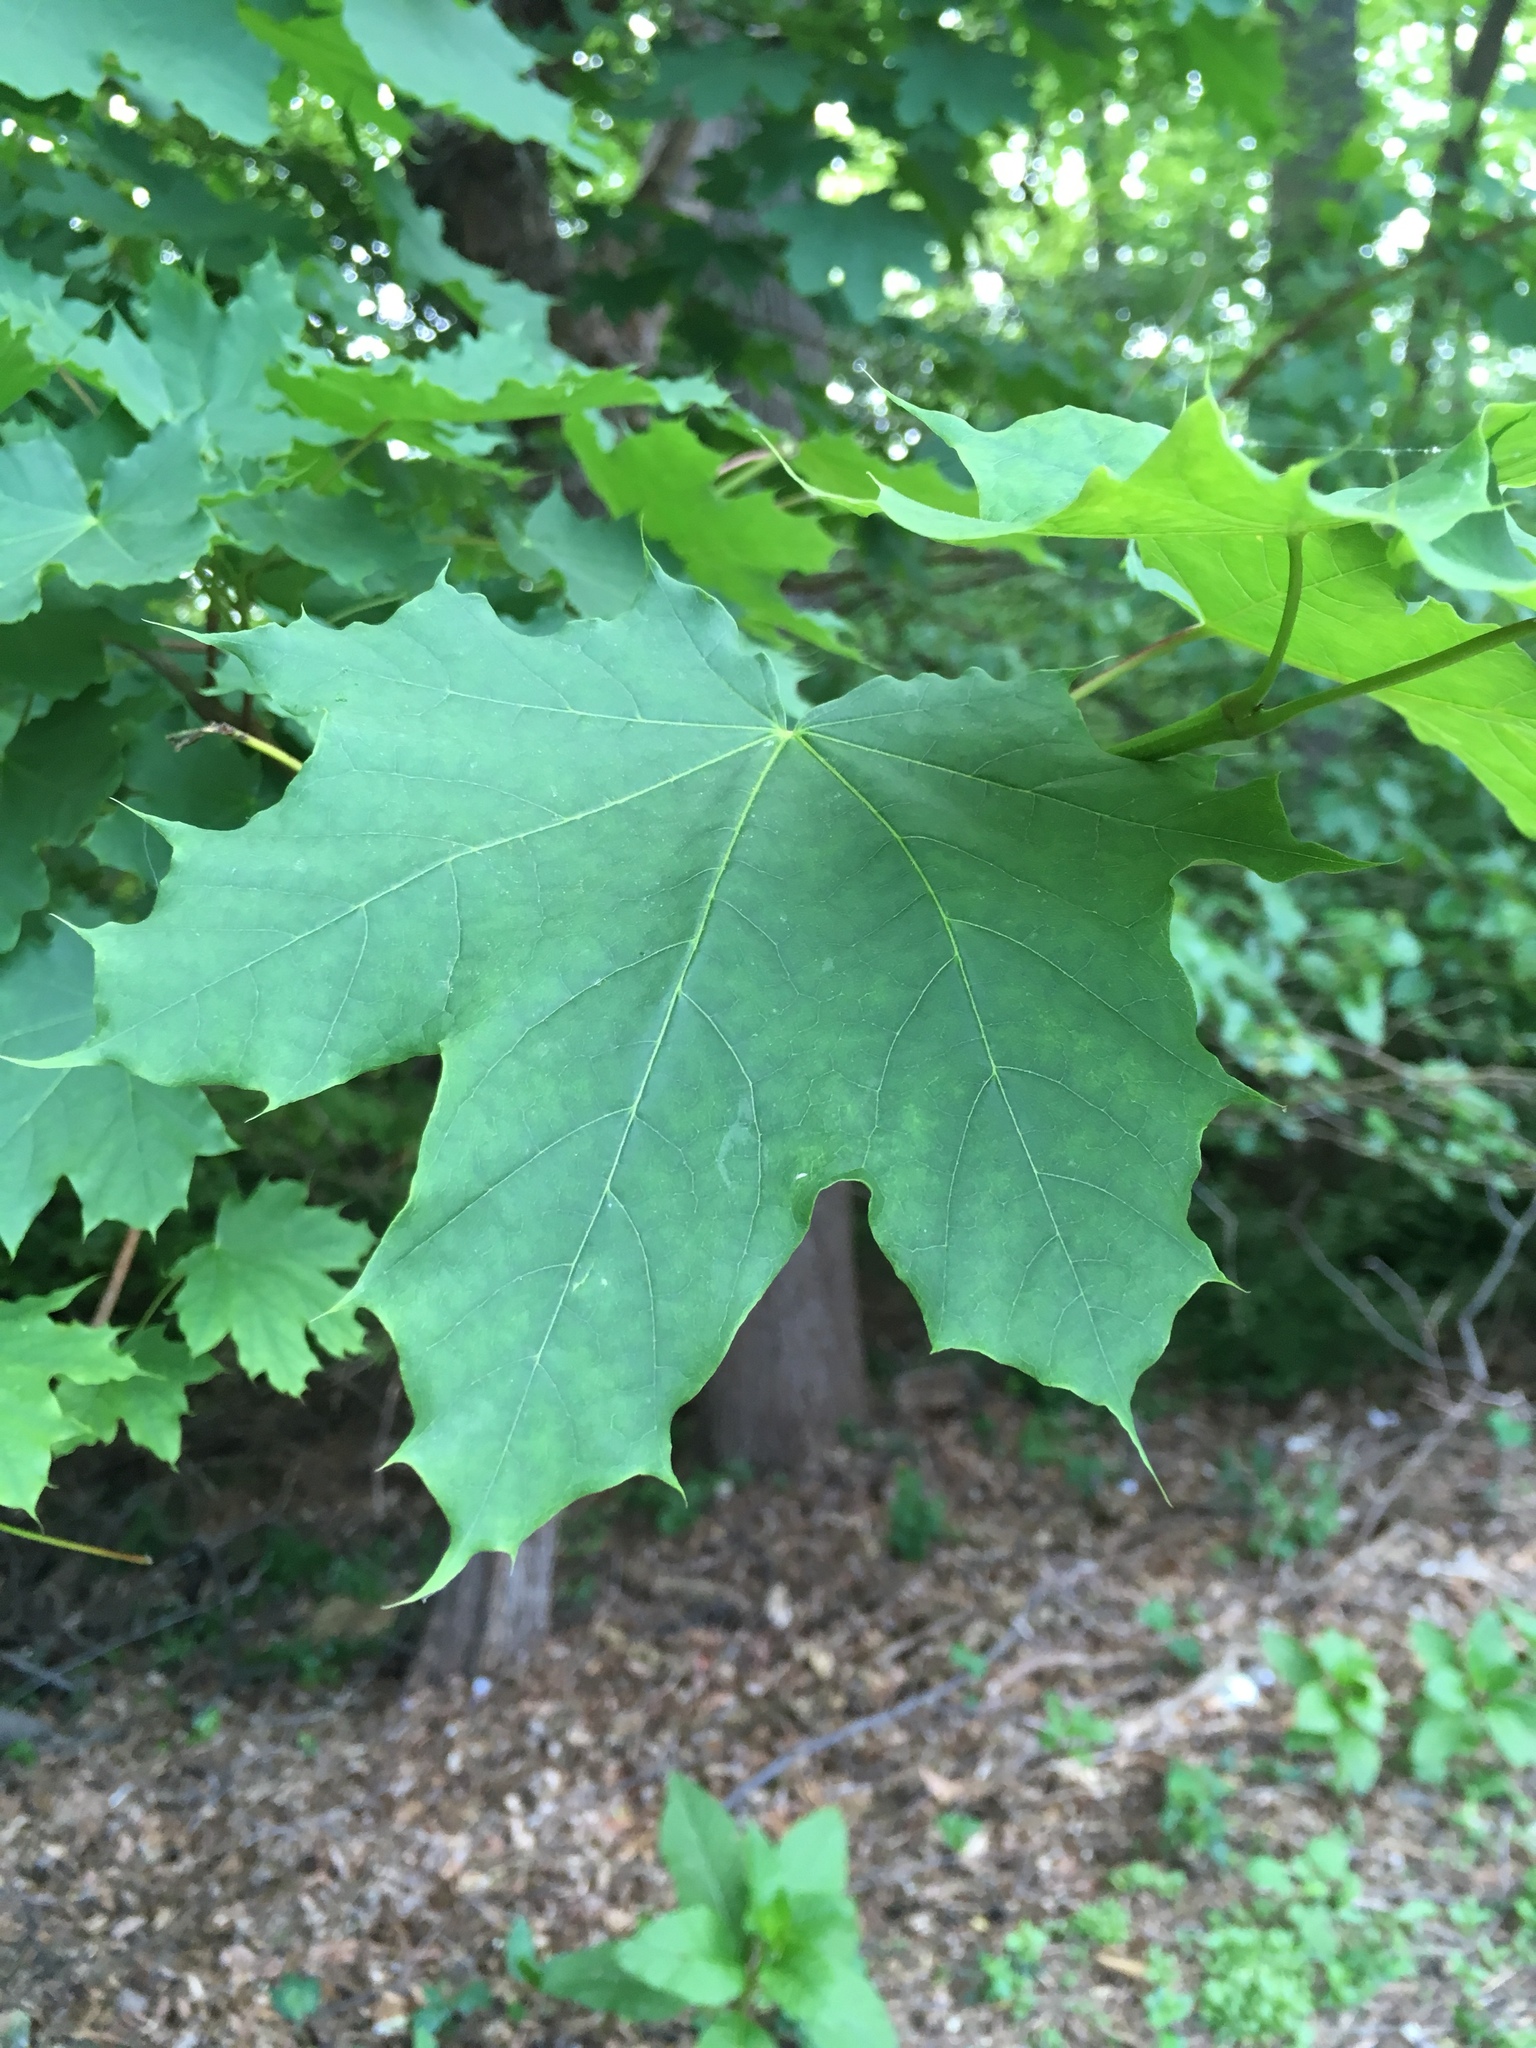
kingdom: Plantae
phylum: Tracheophyta
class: Magnoliopsida
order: Sapindales
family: Sapindaceae
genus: Acer
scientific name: Acer platanoides
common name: Norway maple
